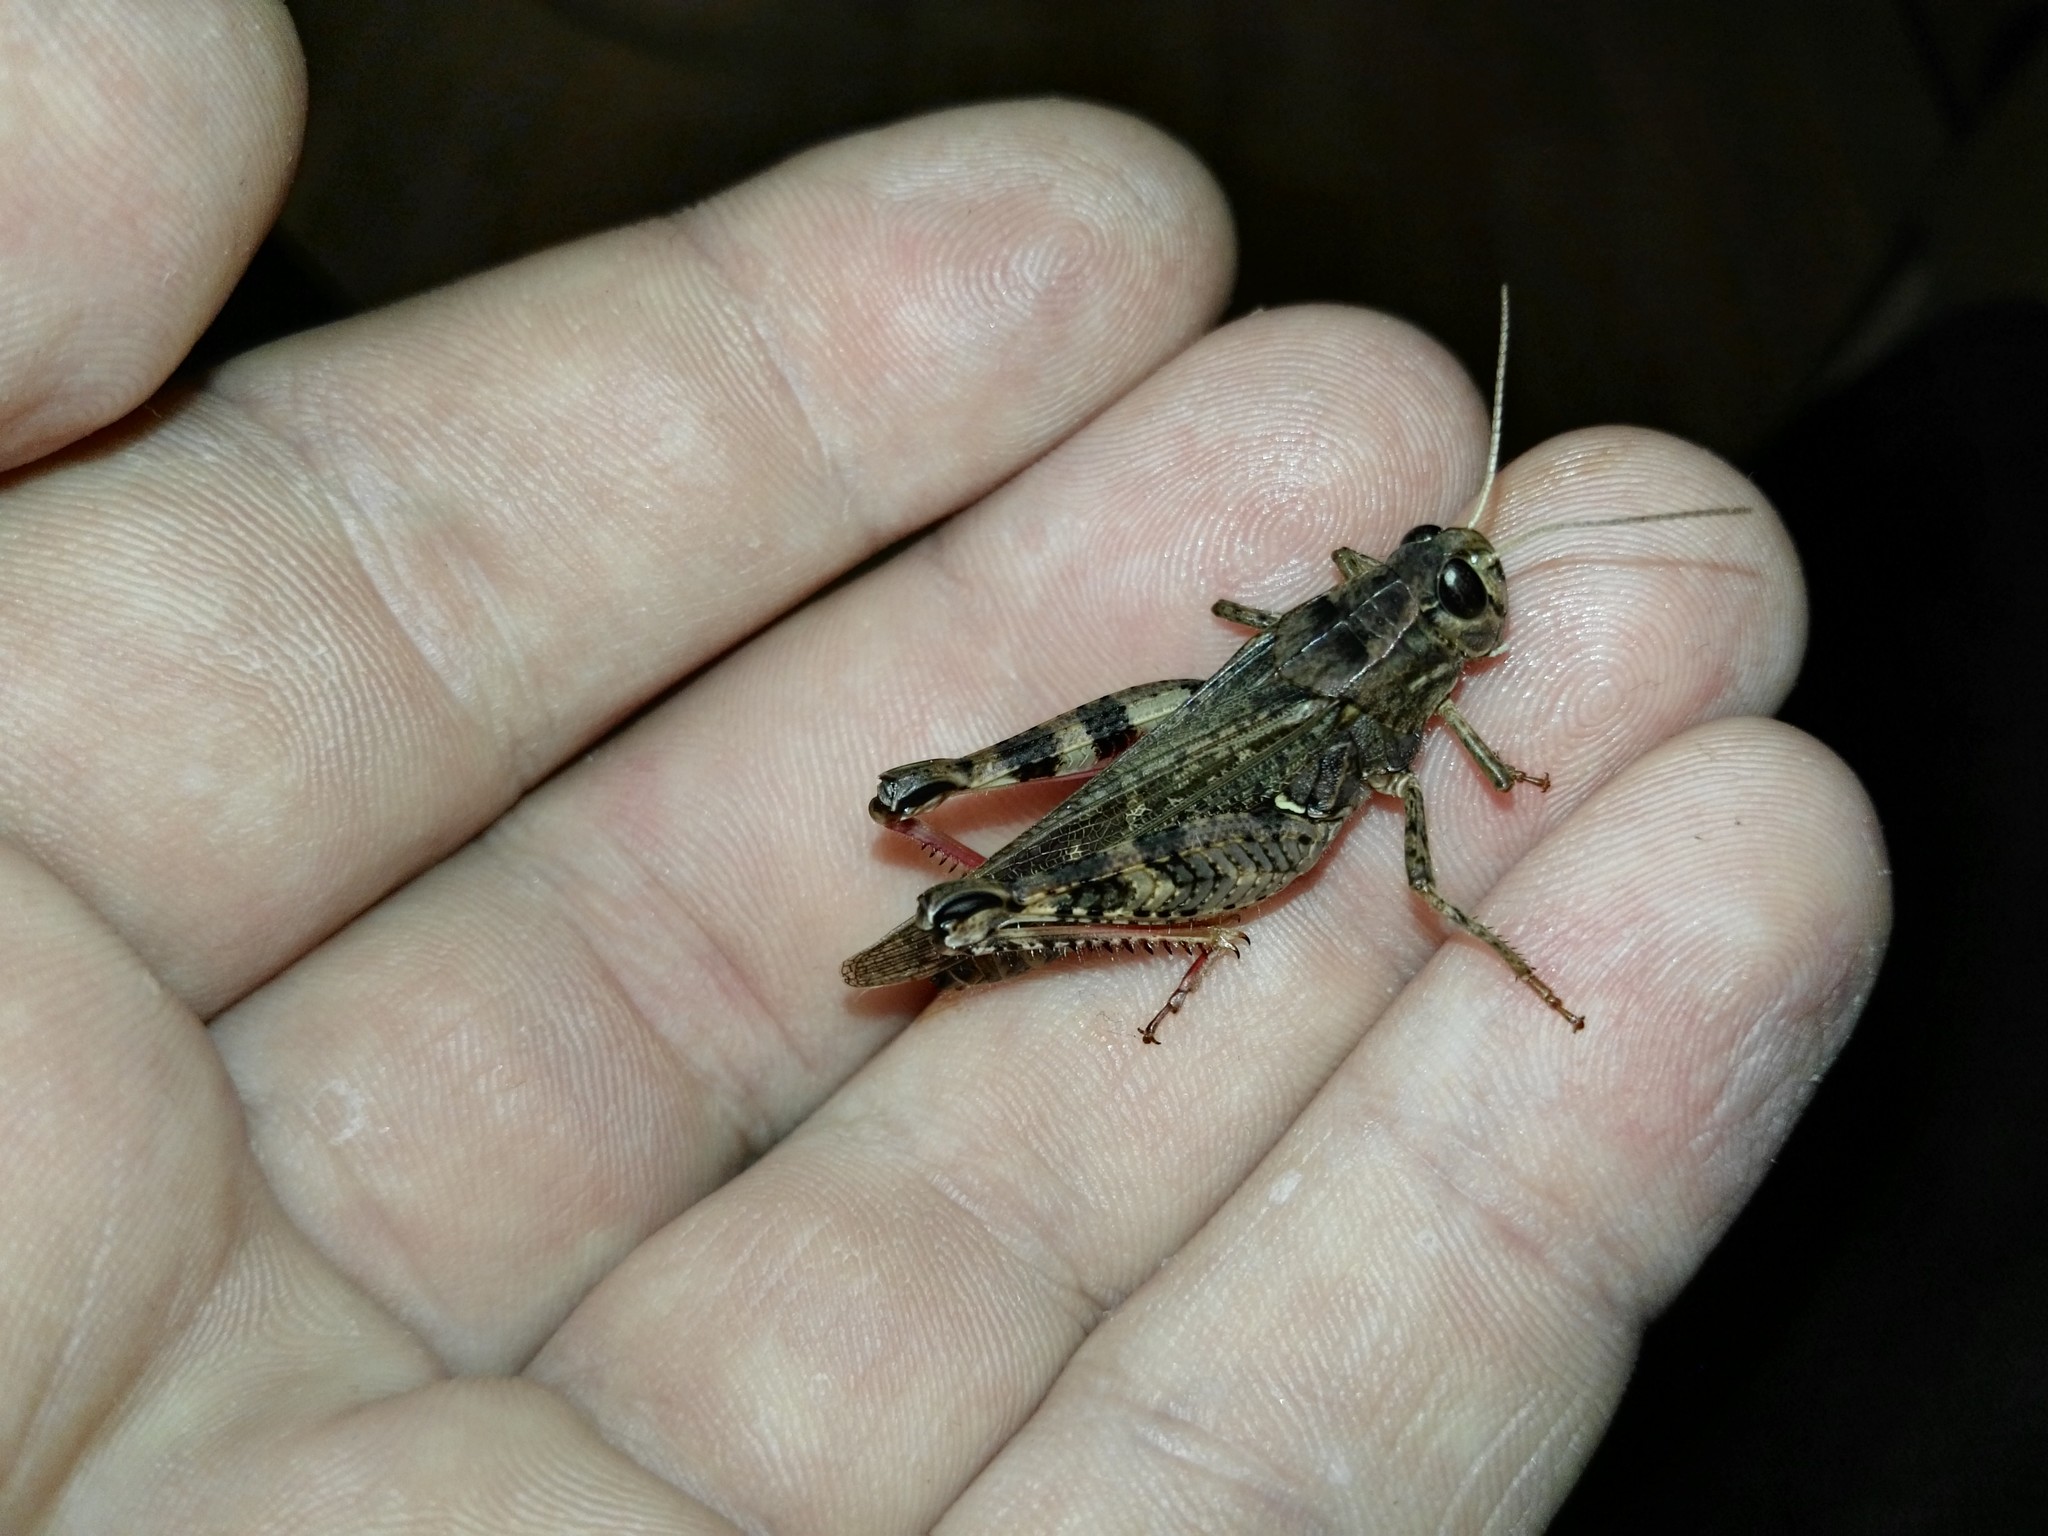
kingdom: Animalia
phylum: Arthropoda
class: Insecta
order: Orthoptera
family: Acrididae
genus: Calliptamus
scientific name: Calliptamus italicus
